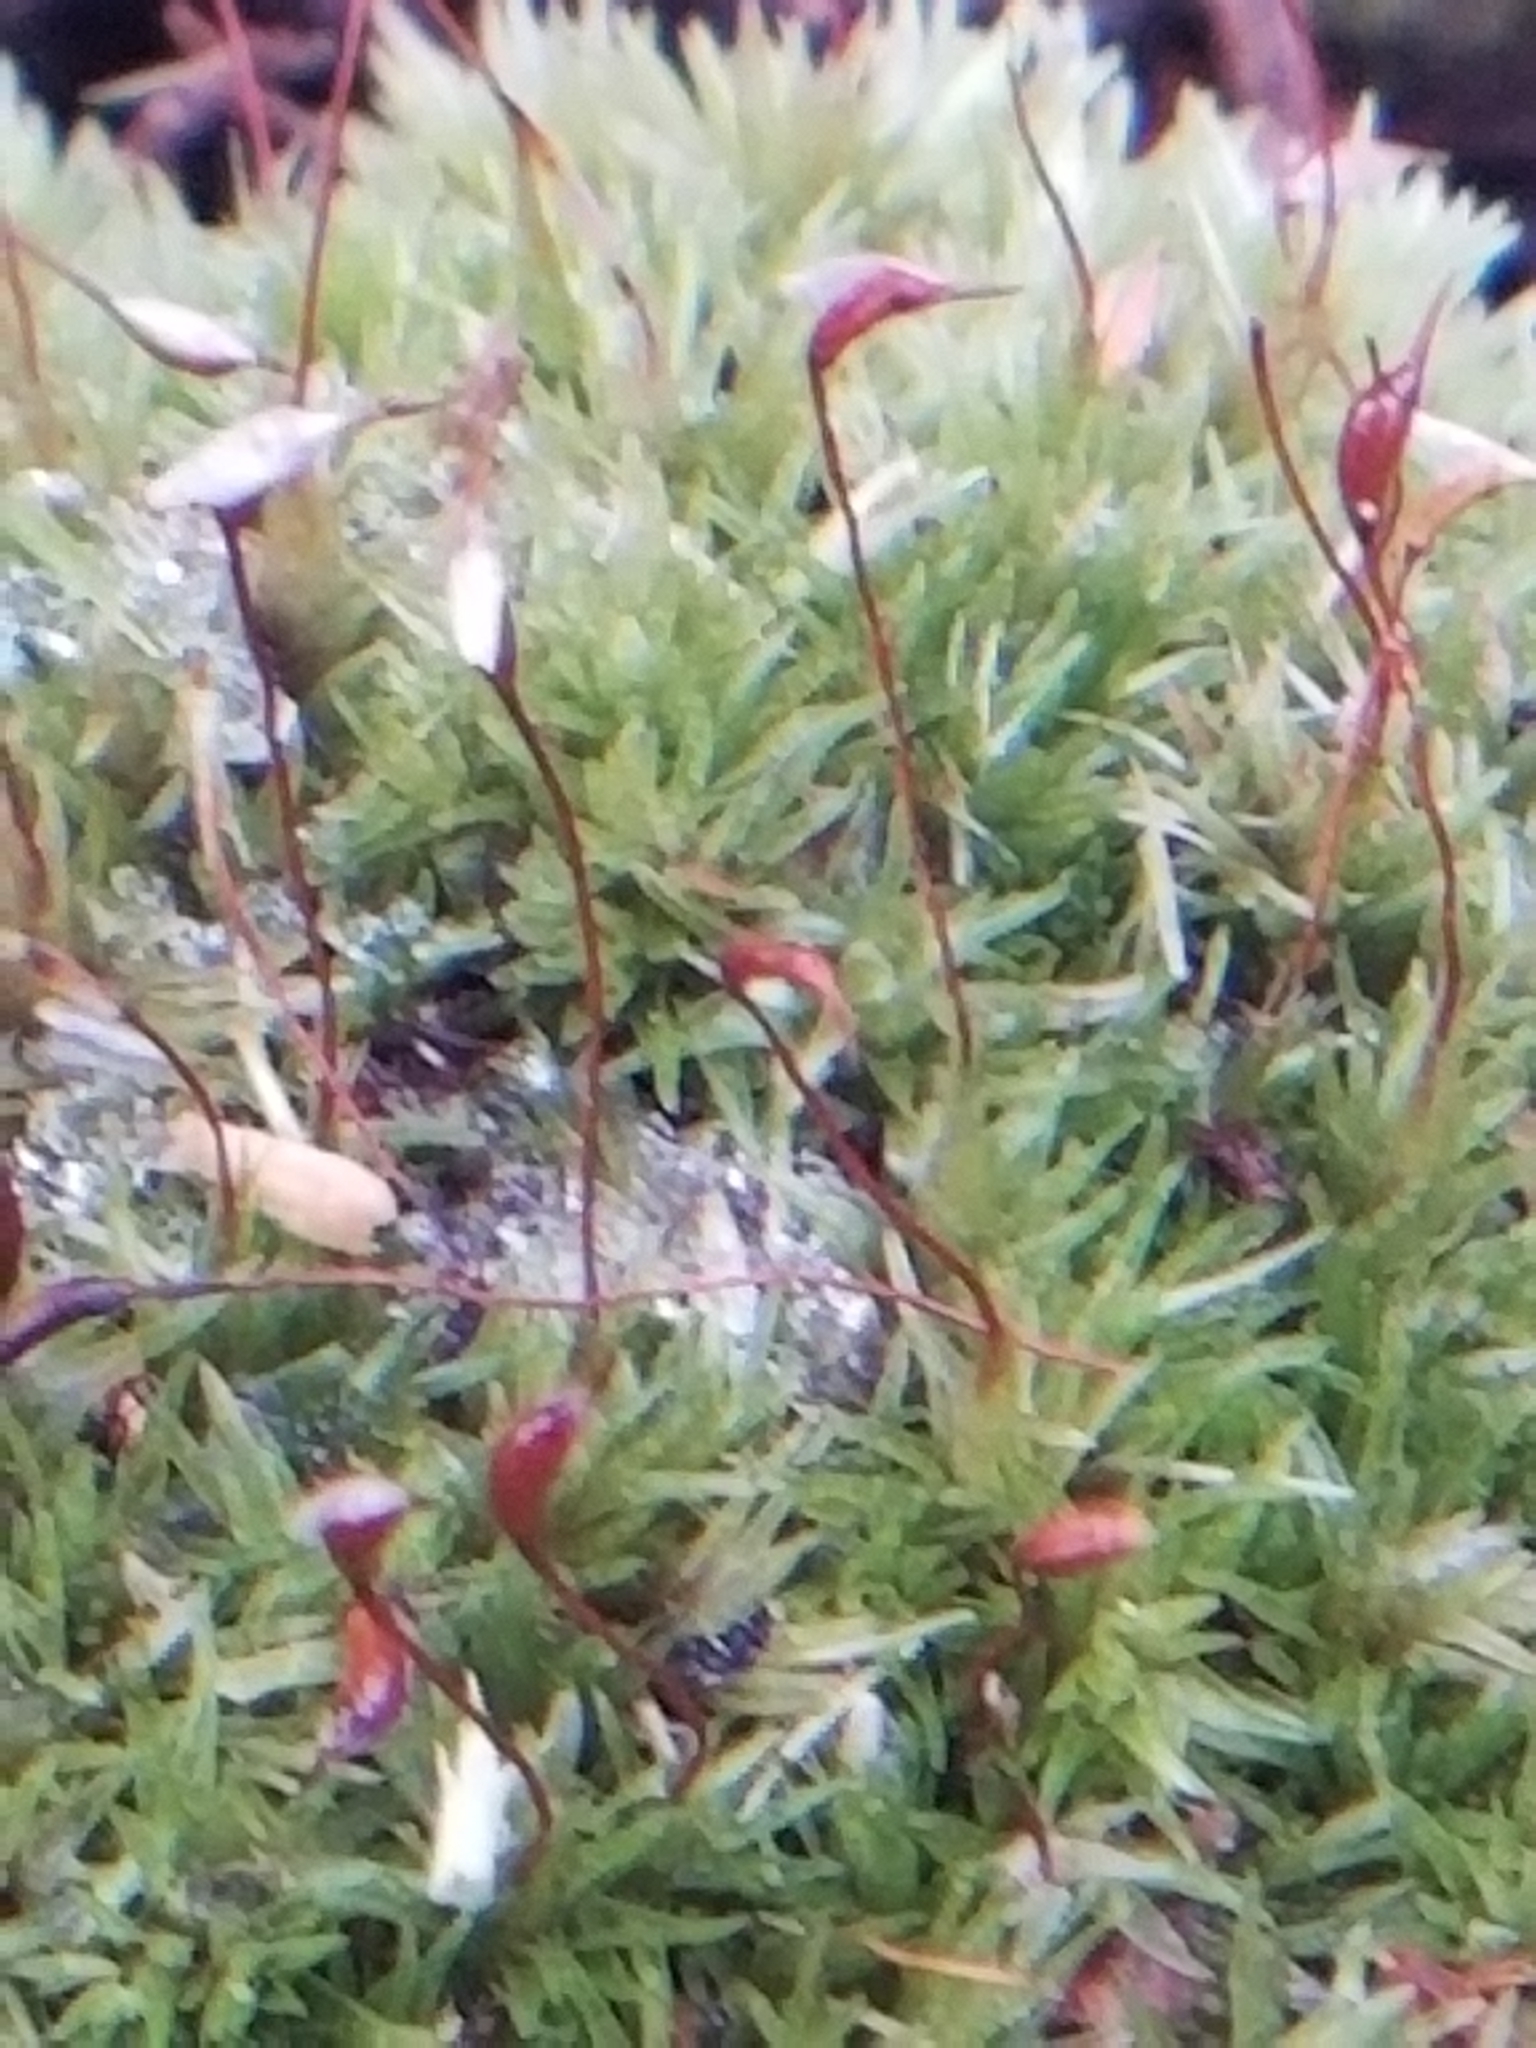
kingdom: Plantae
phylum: Bryophyta
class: Bryopsida
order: Dicranales
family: Leucobryaceae
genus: Leucobryum
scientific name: Leucobryum albidum
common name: White moss
